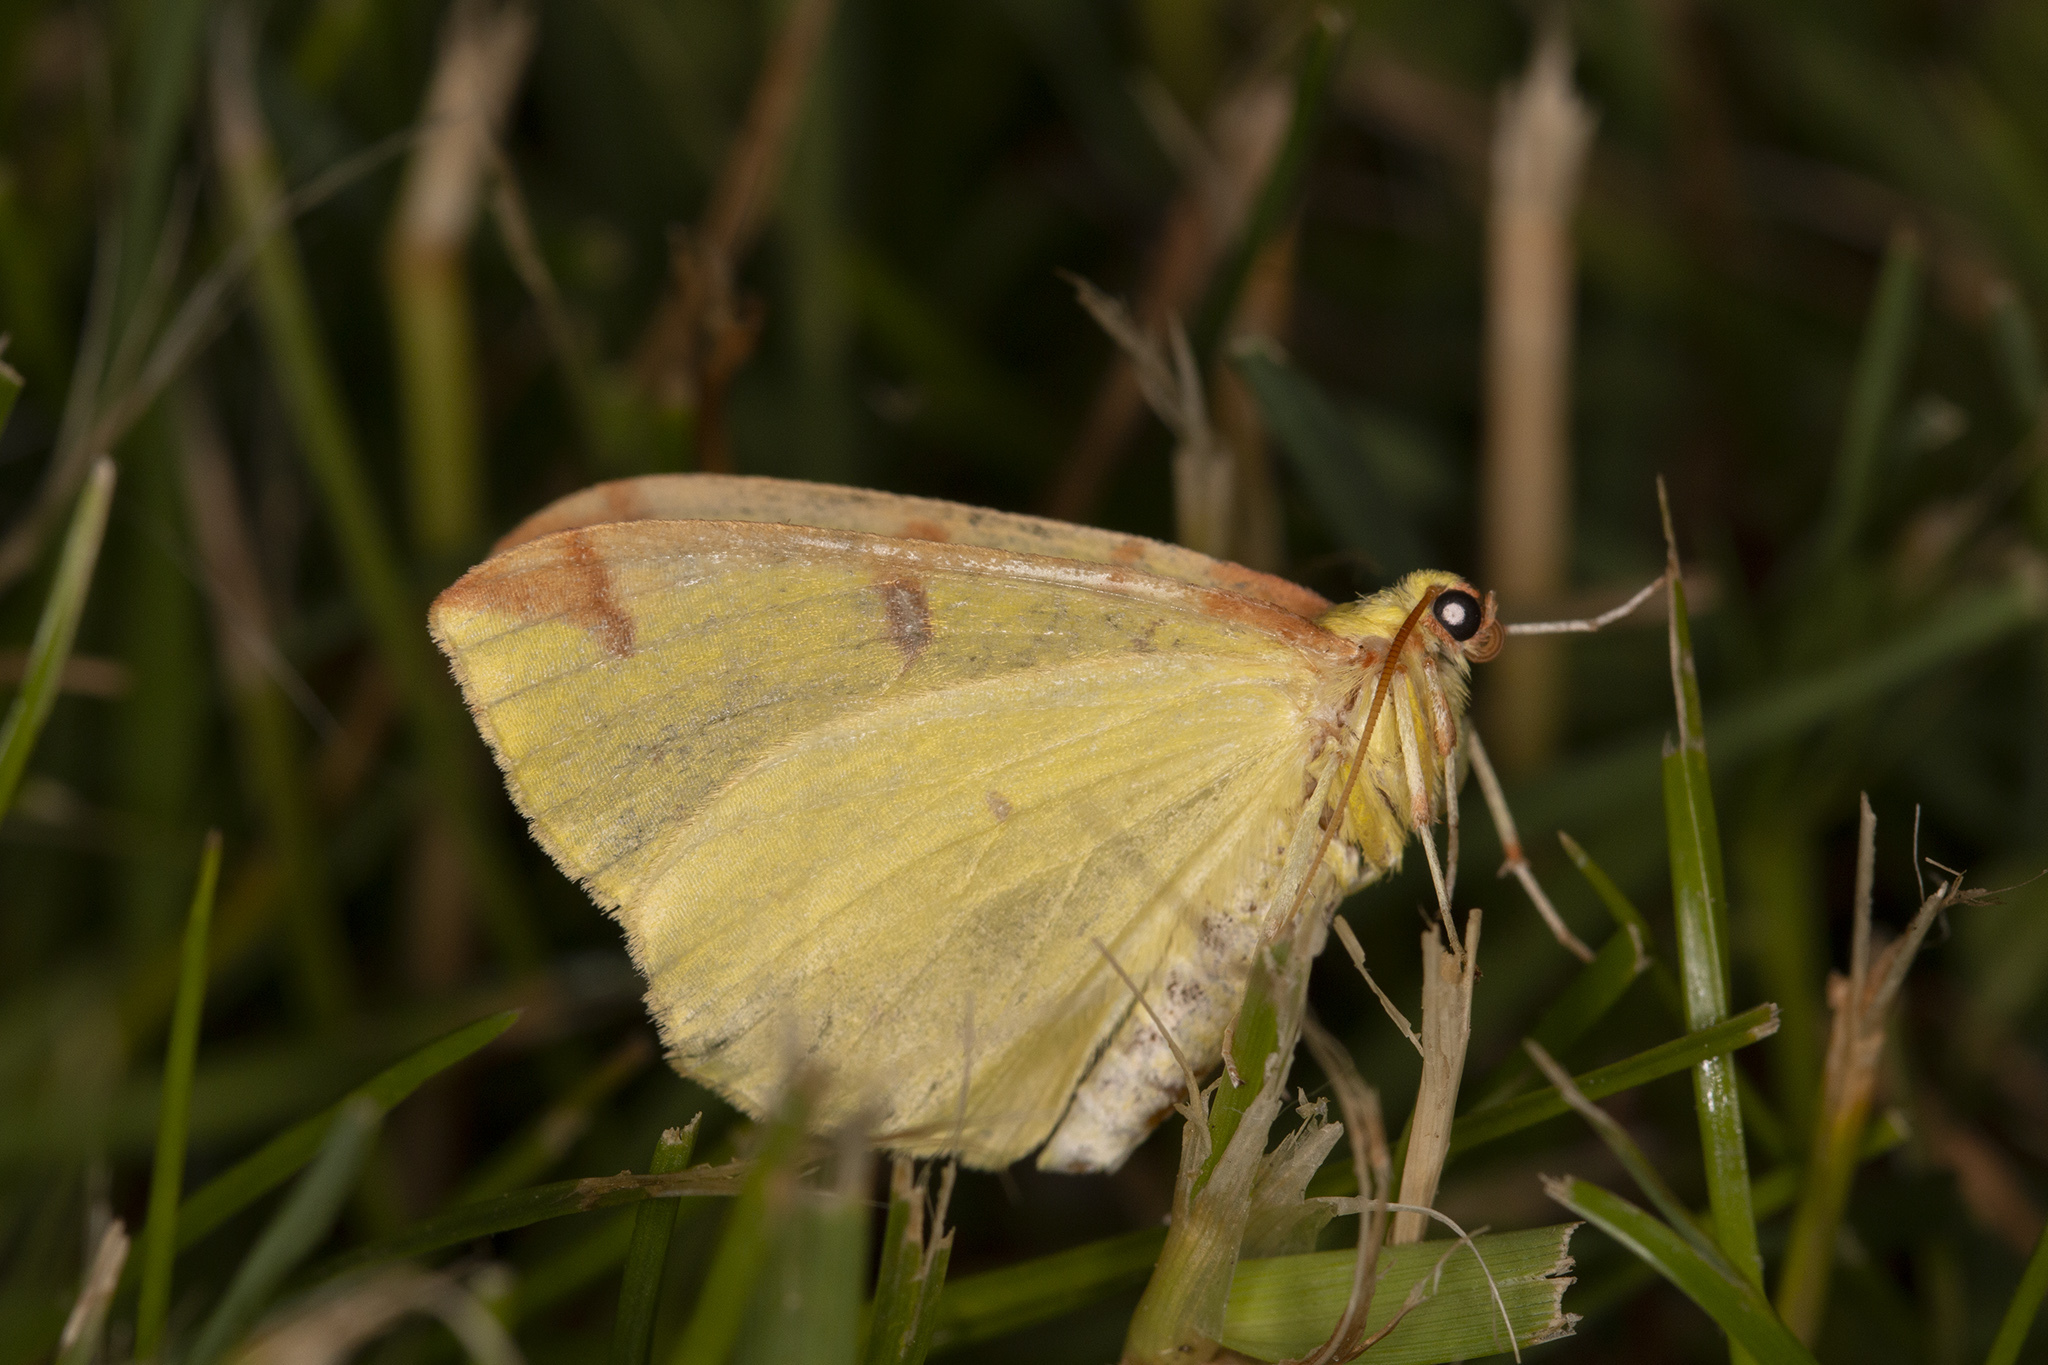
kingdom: Animalia
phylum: Arthropoda
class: Insecta
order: Lepidoptera
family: Geometridae
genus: Opisthograptis
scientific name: Opisthograptis luteolata
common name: Brimstone moth
